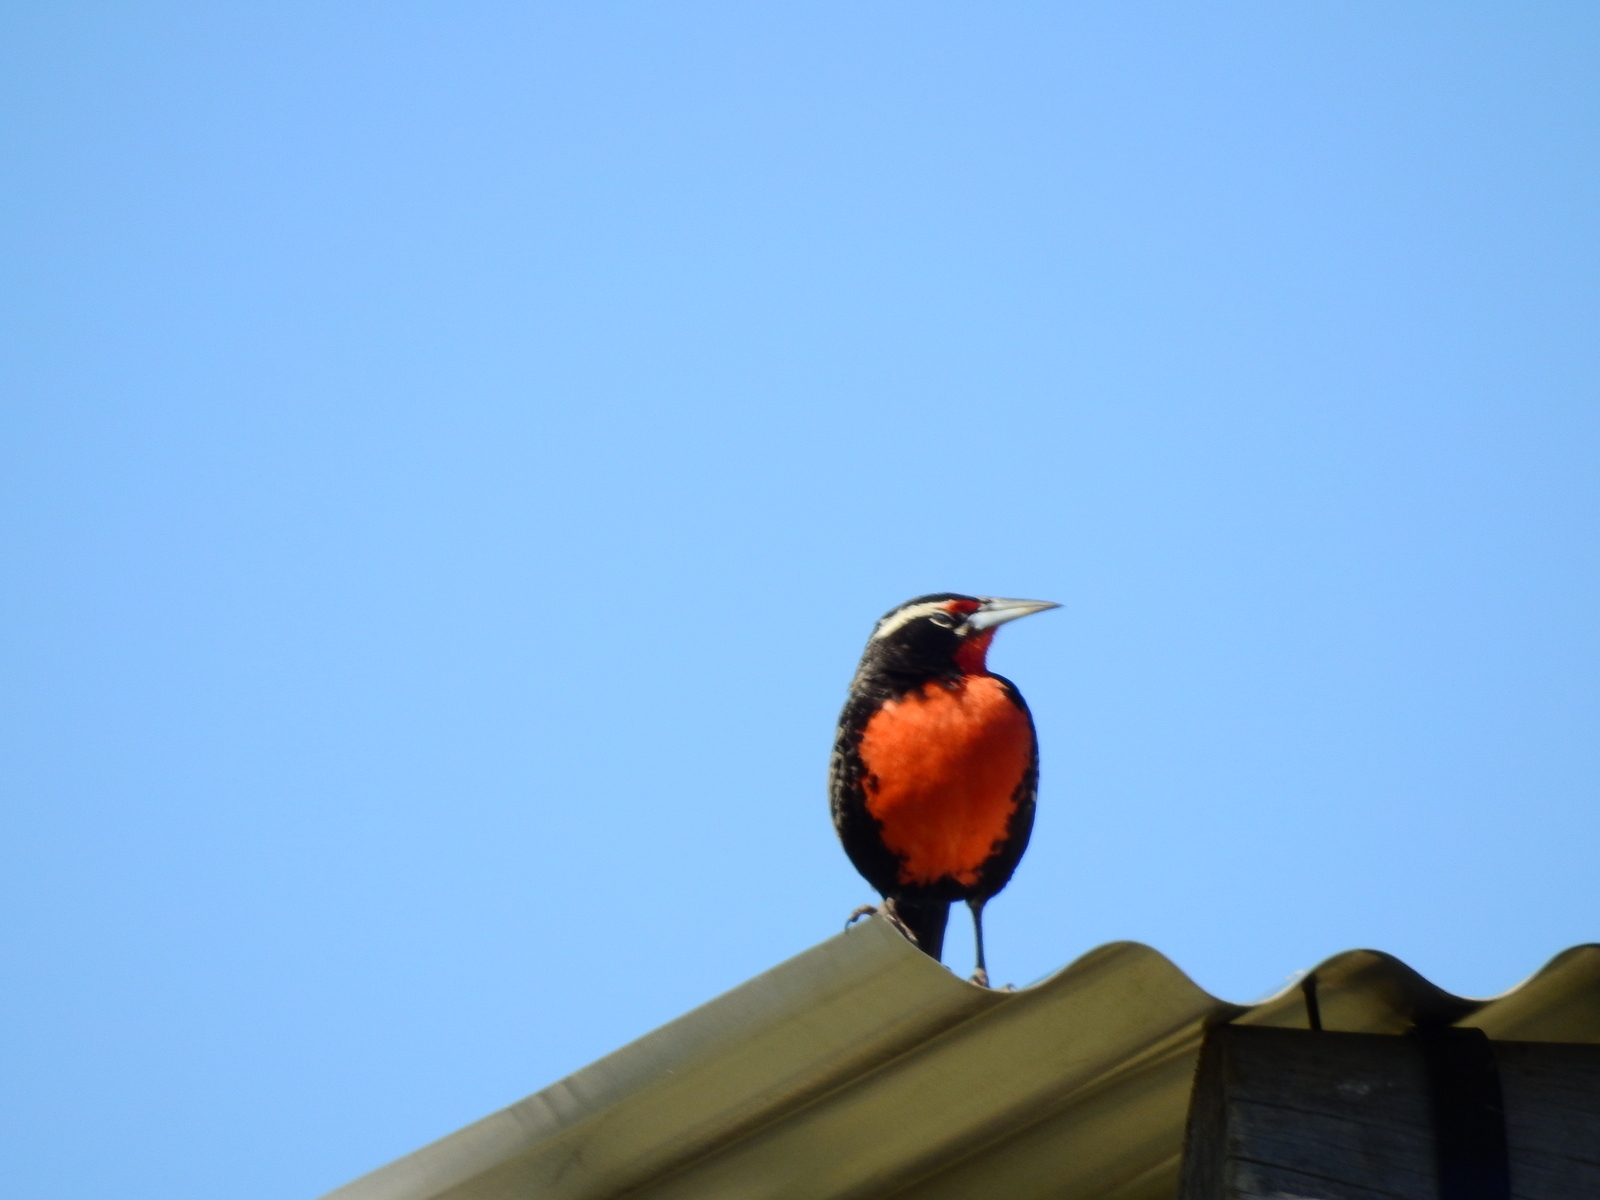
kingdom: Animalia
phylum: Chordata
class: Aves
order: Passeriformes
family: Icteridae
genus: Sturnella
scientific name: Sturnella loyca
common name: Long-tailed meadowlark
